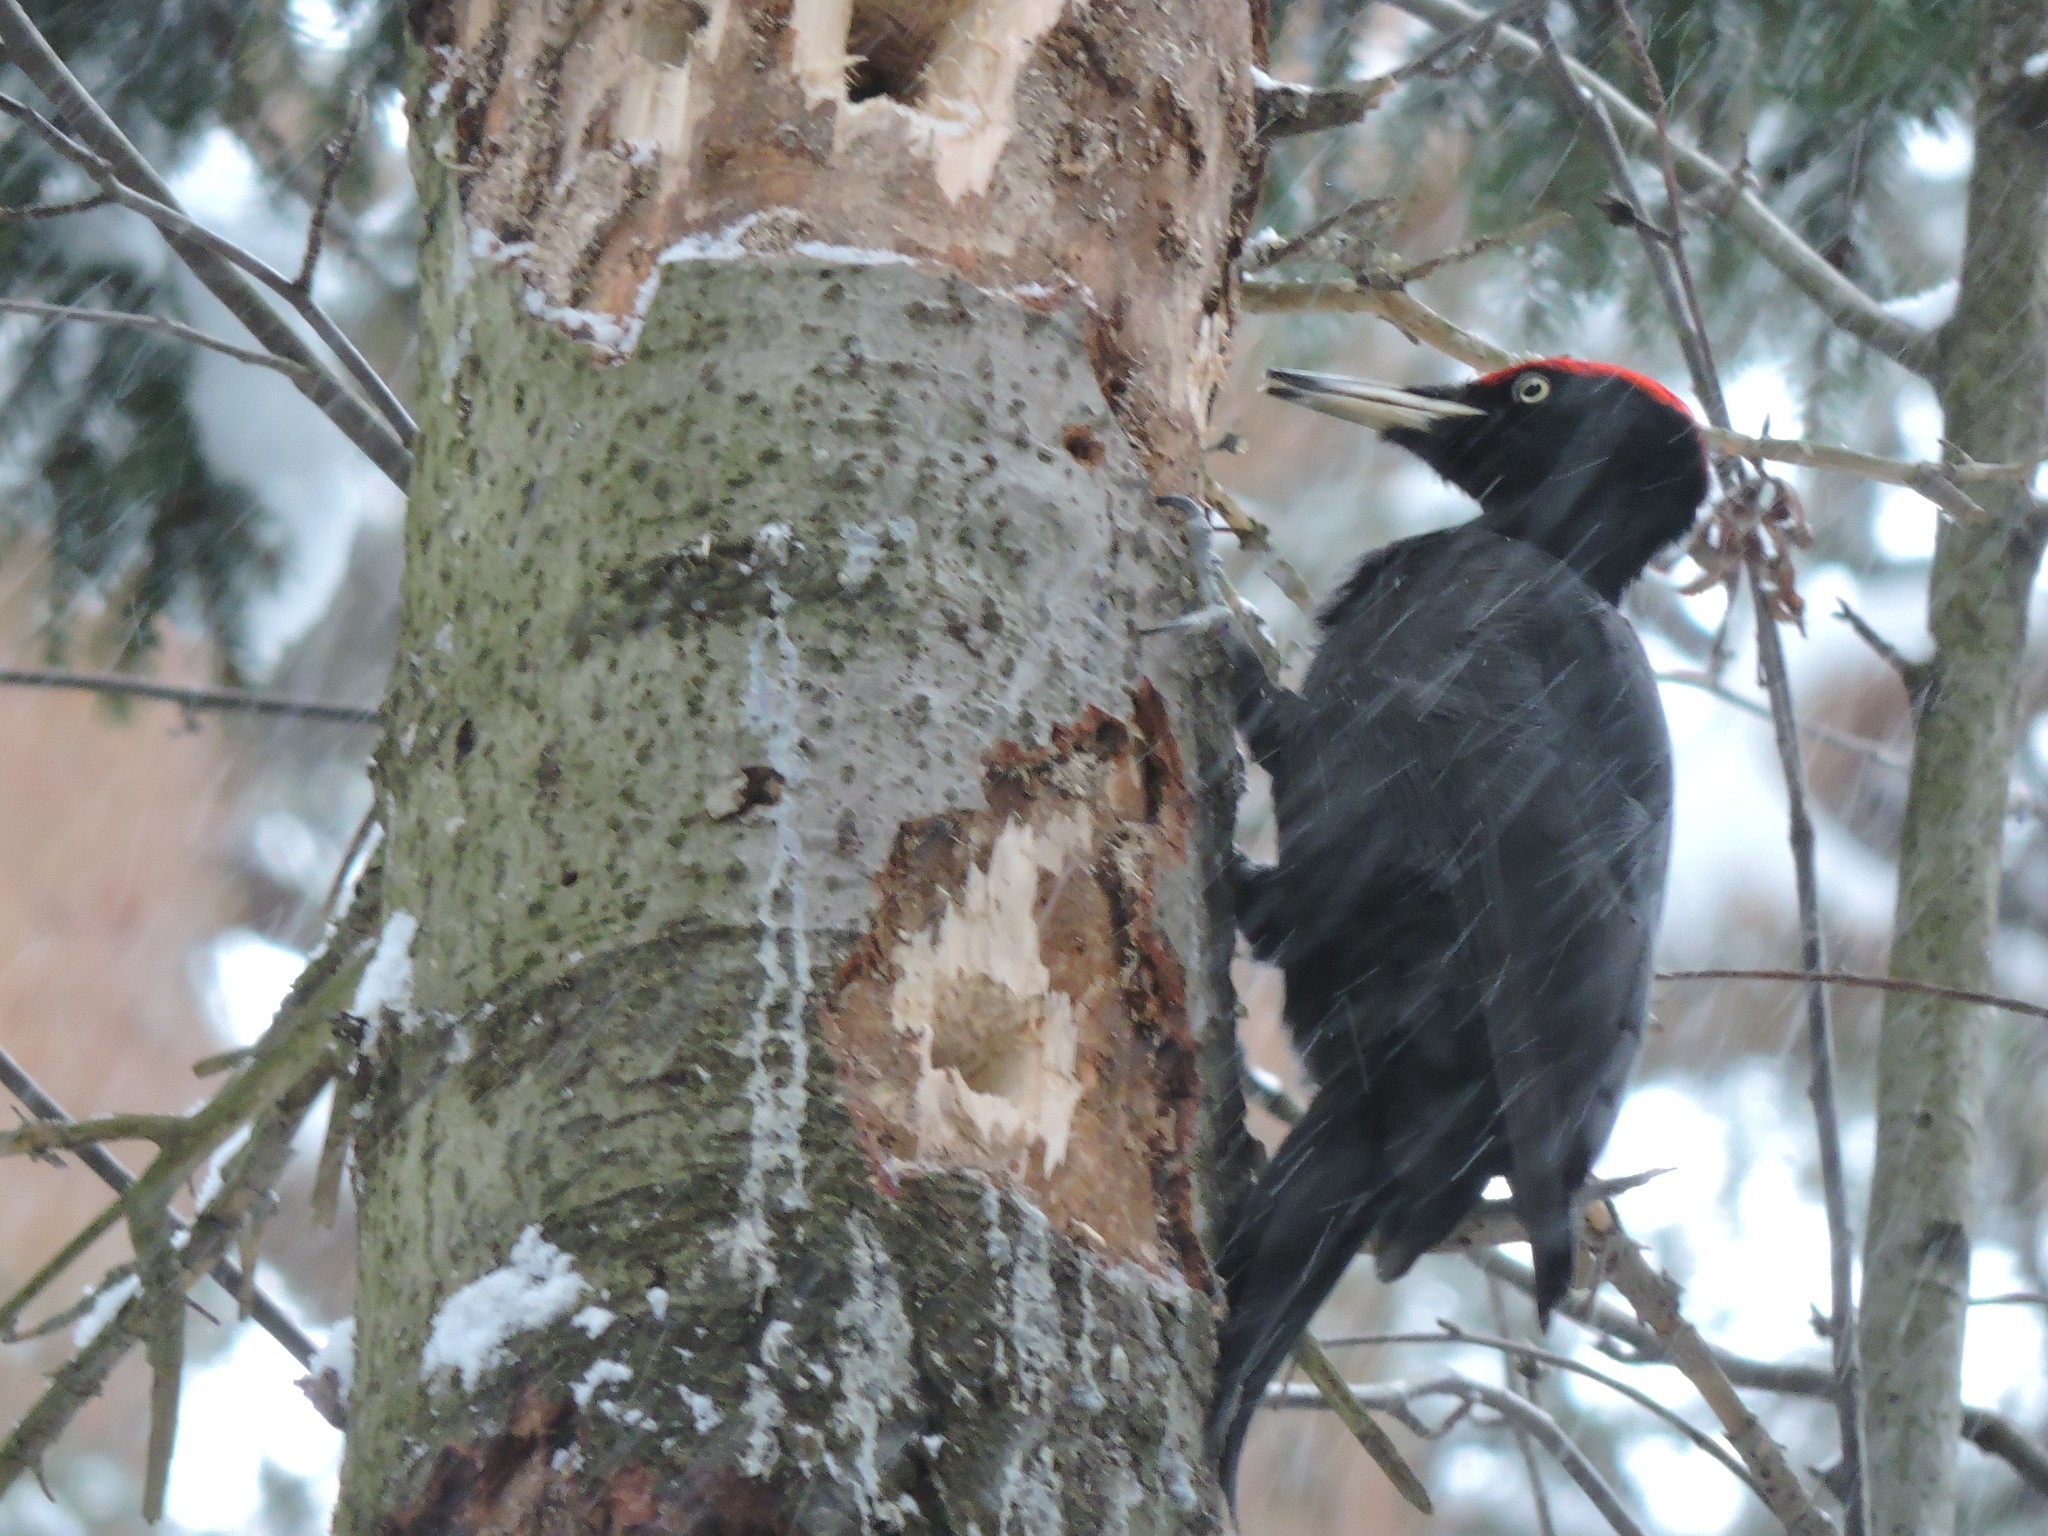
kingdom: Animalia
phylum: Chordata
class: Aves
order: Piciformes
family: Picidae
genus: Dryocopus
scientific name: Dryocopus martius
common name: Black woodpecker
